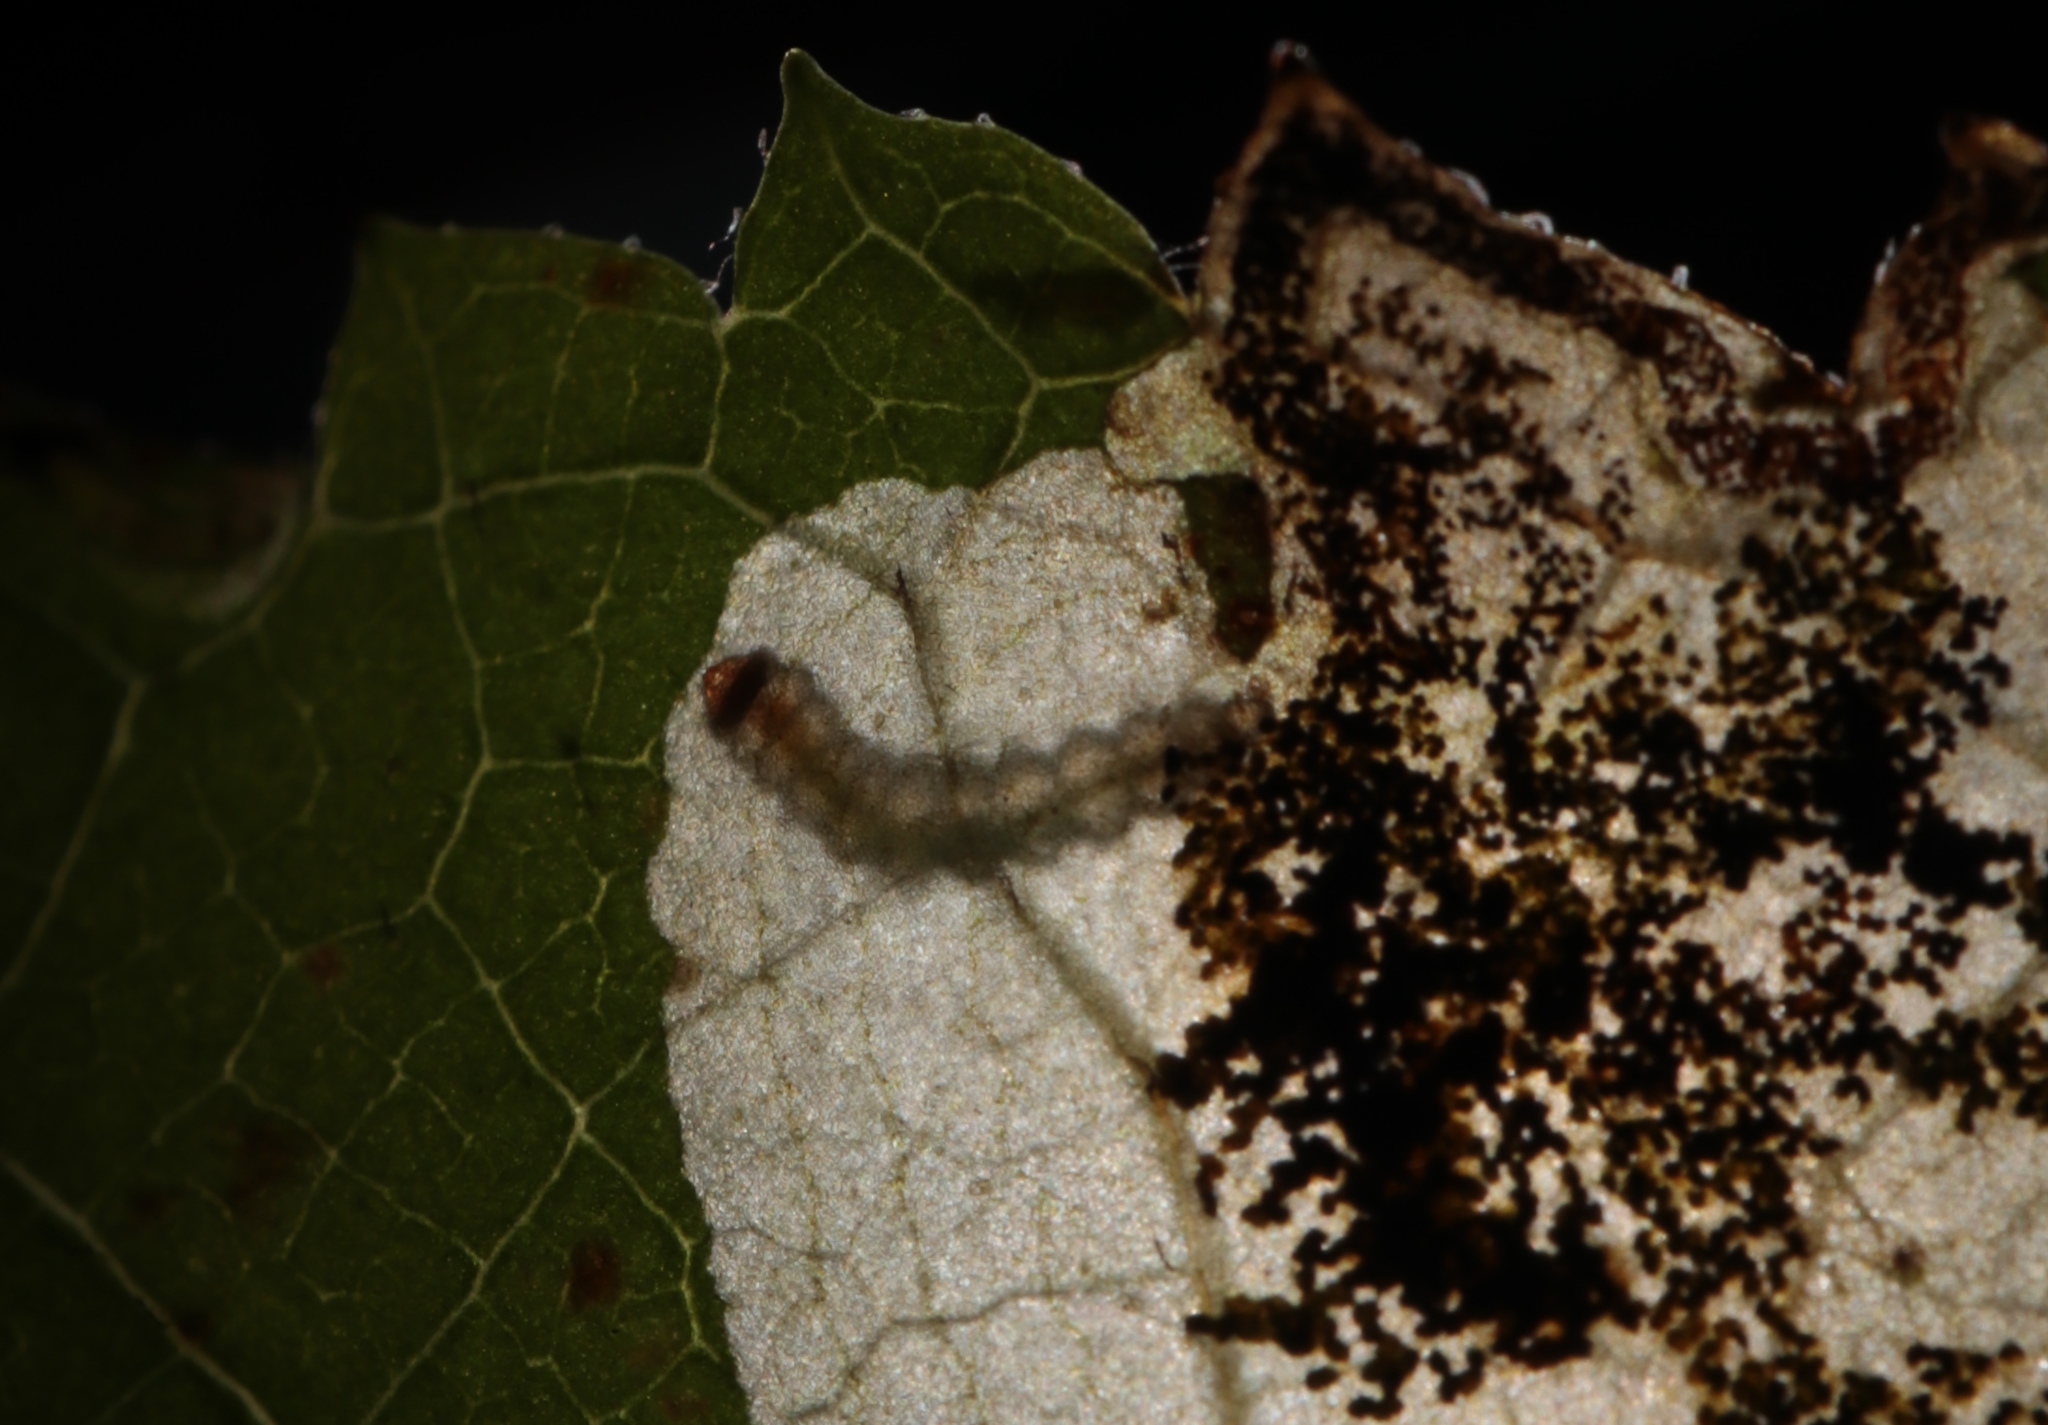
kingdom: Animalia
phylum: Arthropoda
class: Insecta
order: Lepidoptera
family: Heliozelidae
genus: Aspilanta
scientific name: Aspilanta hydrangaeella
